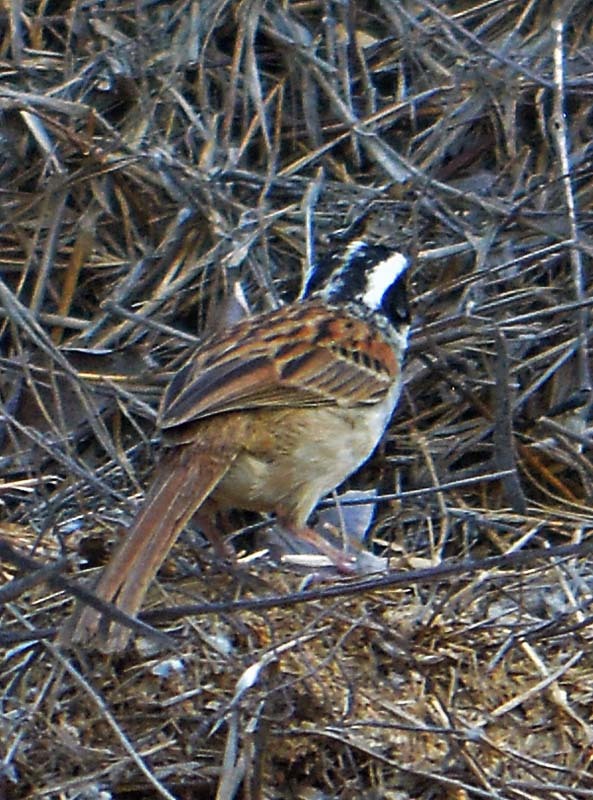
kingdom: Animalia
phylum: Chordata
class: Aves
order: Passeriformes
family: Passerellidae
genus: Peucaea
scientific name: Peucaea ruficauda
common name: Stripe-headed sparrow
